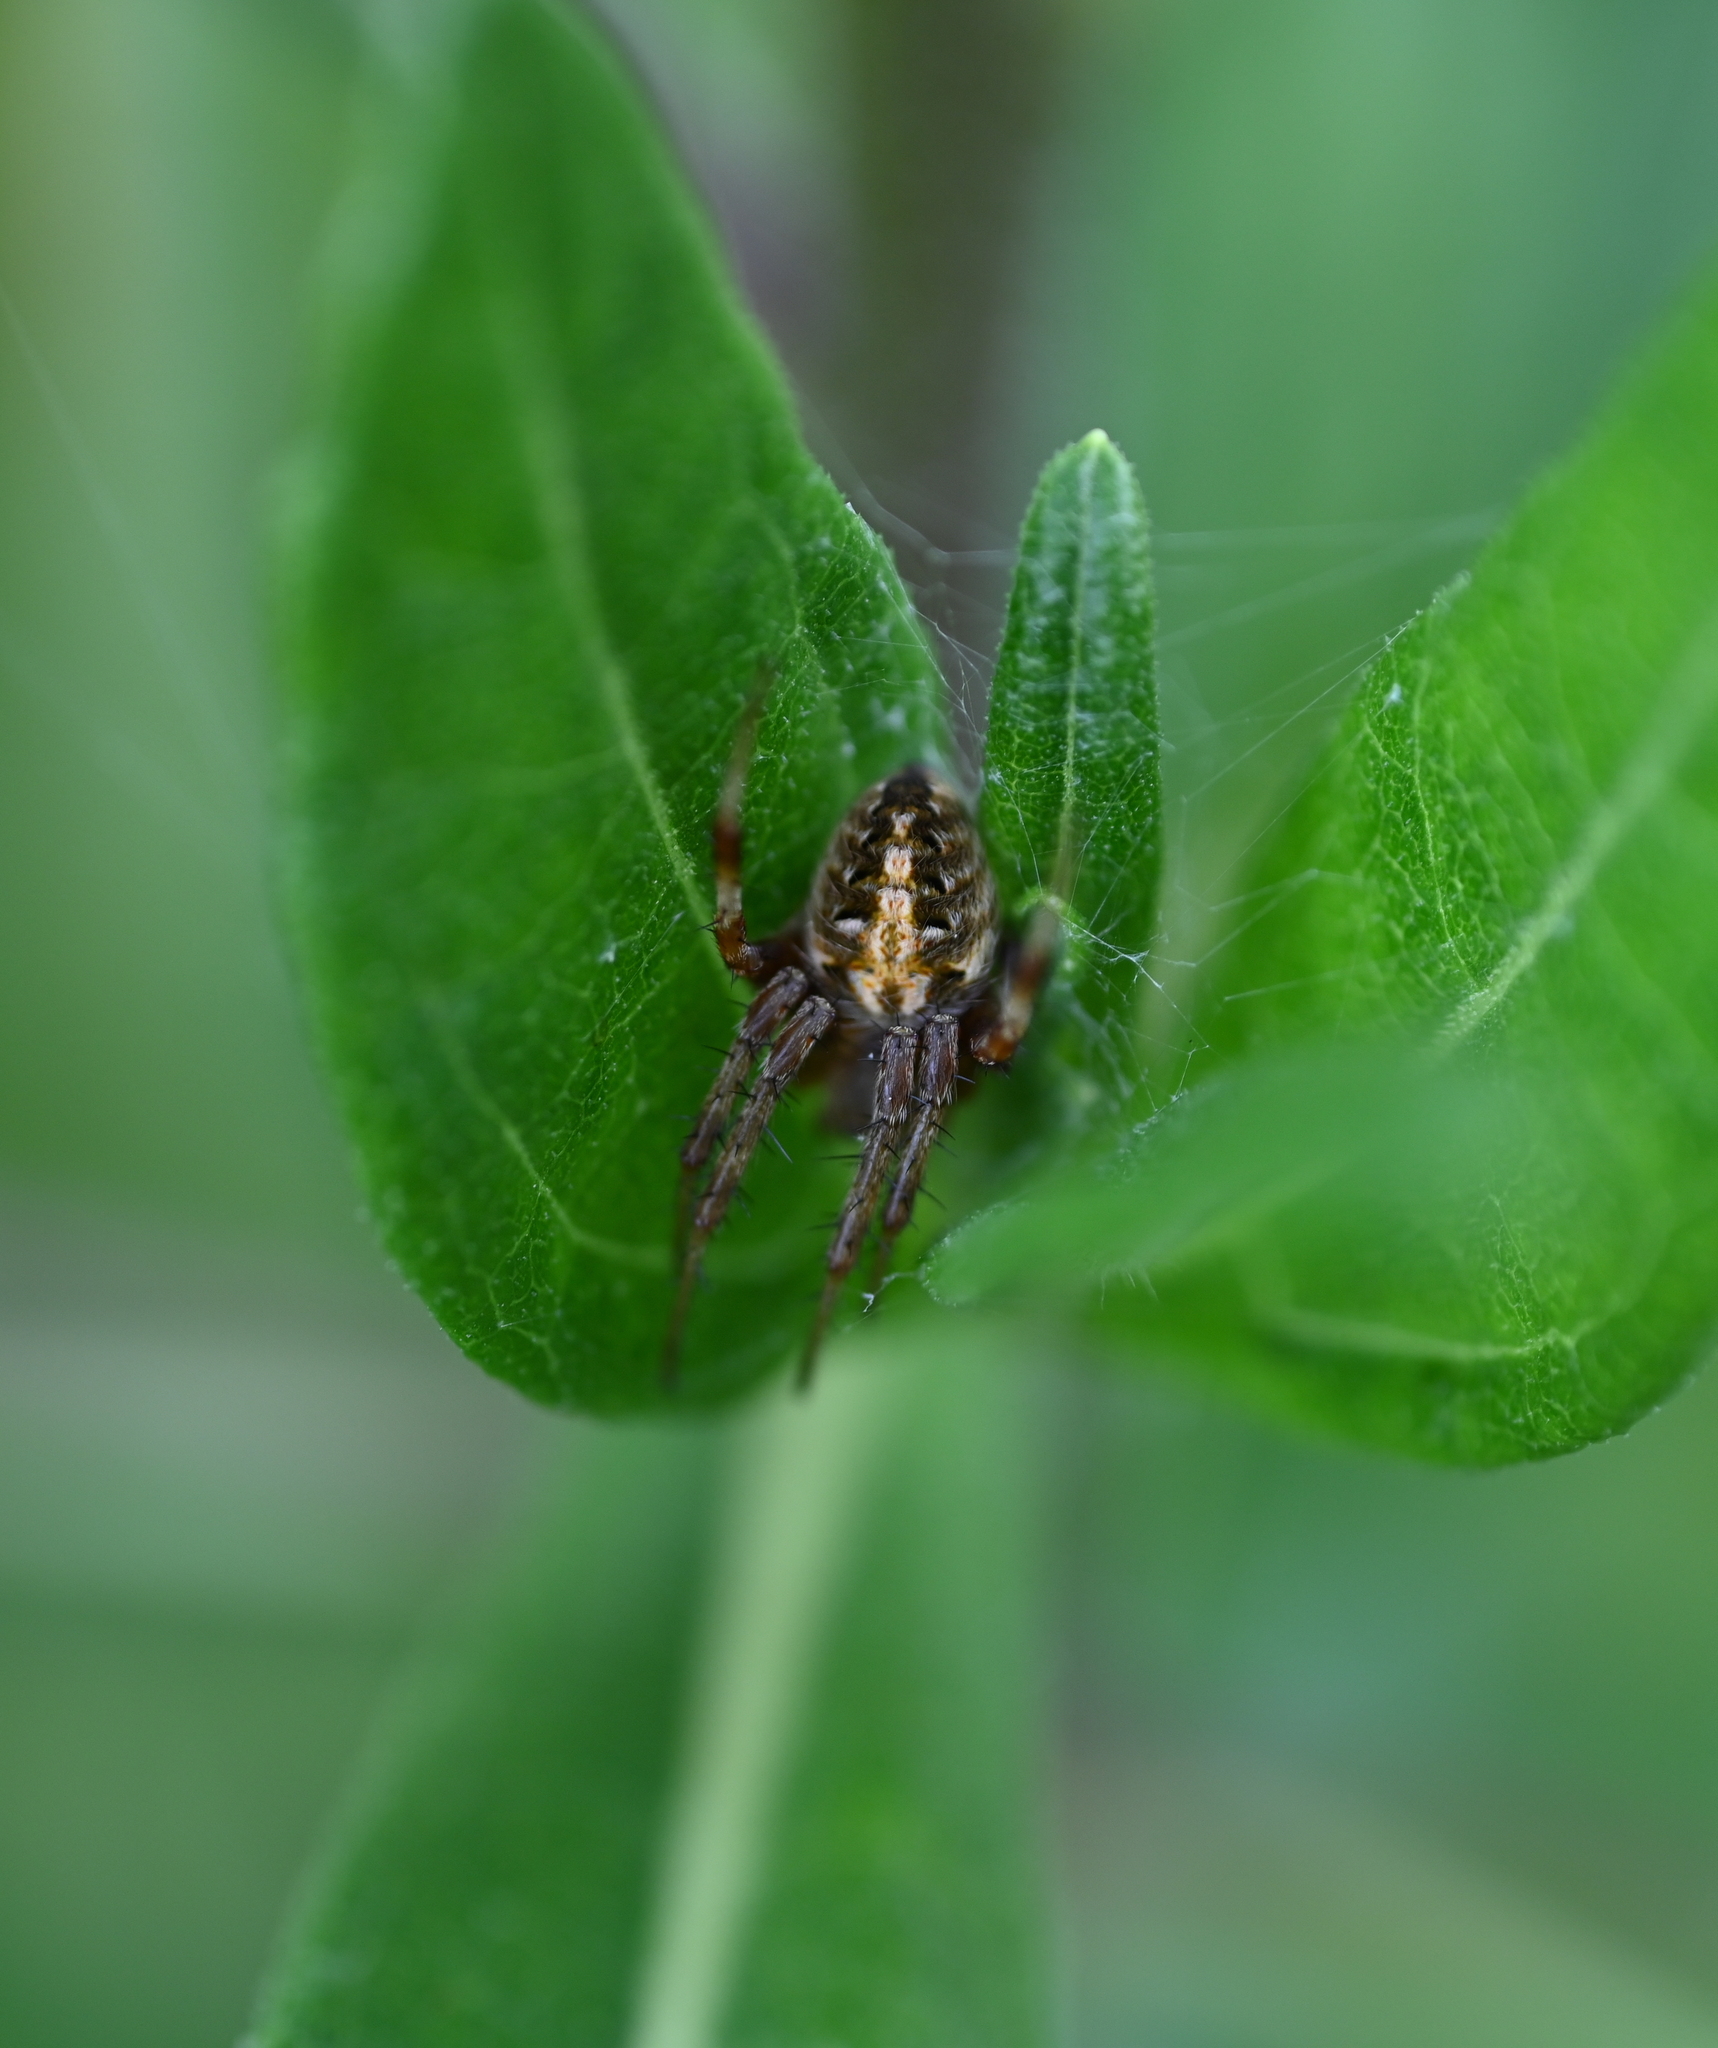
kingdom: Animalia
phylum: Arthropoda
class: Arachnida
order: Araneae
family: Araneidae
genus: Neoscona
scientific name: Neoscona arabesca
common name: Orb weavers
